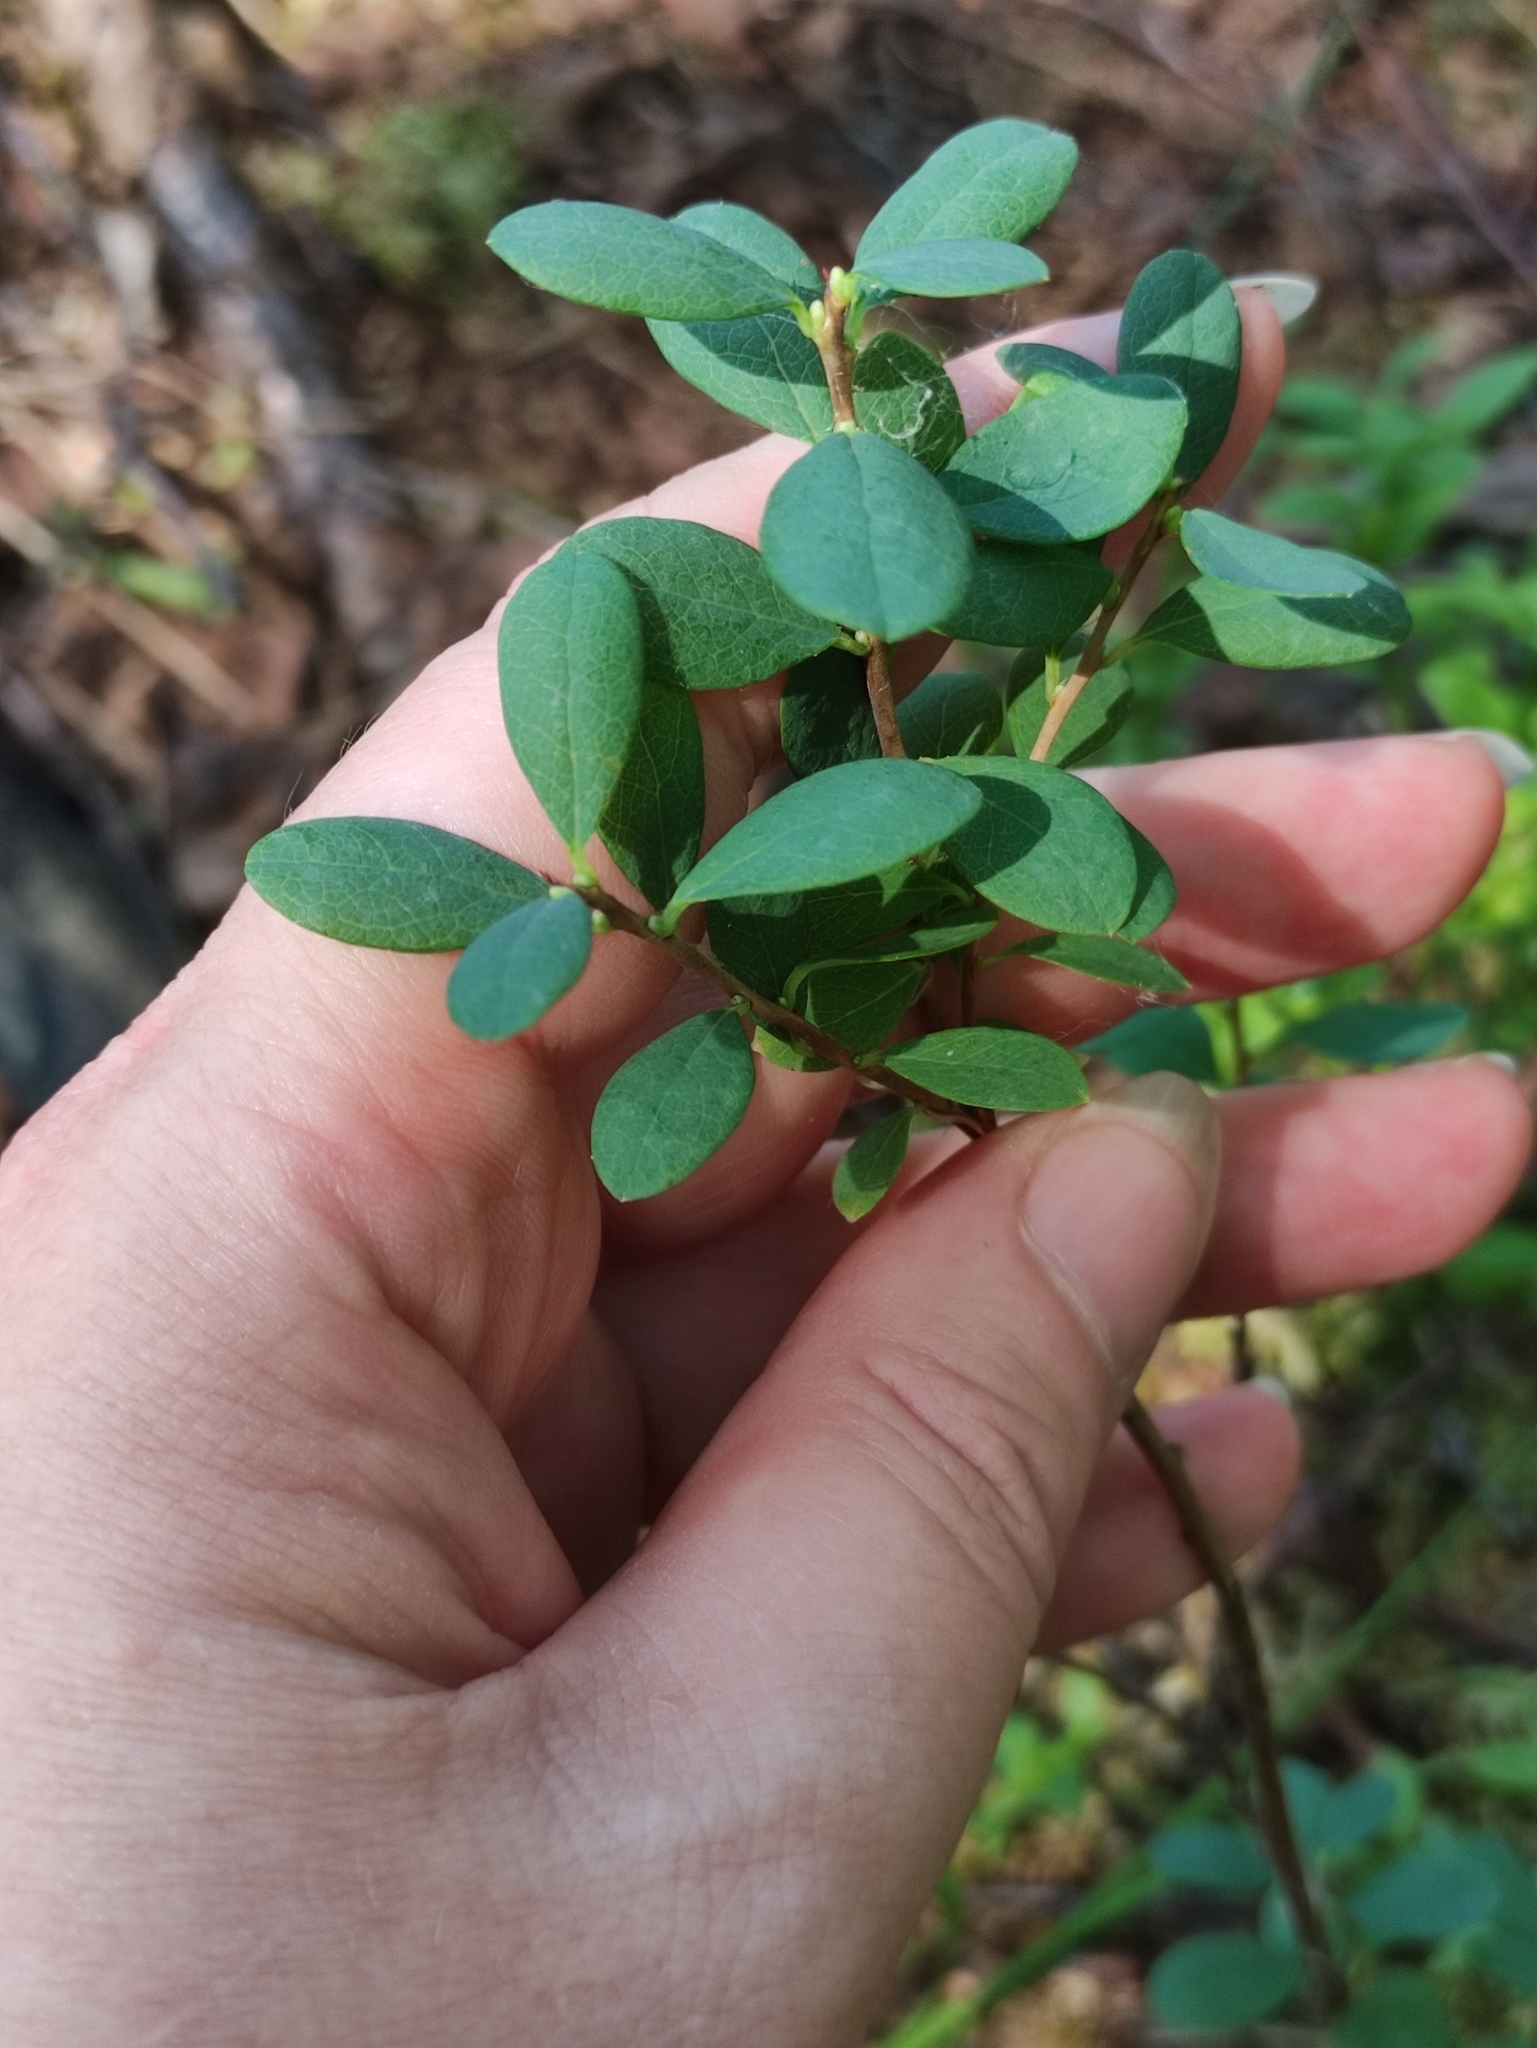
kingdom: Plantae
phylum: Tracheophyta
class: Magnoliopsida
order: Ericales
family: Ericaceae
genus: Vaccinium
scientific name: Vaccinium uliginosum
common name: Bog bilberry
